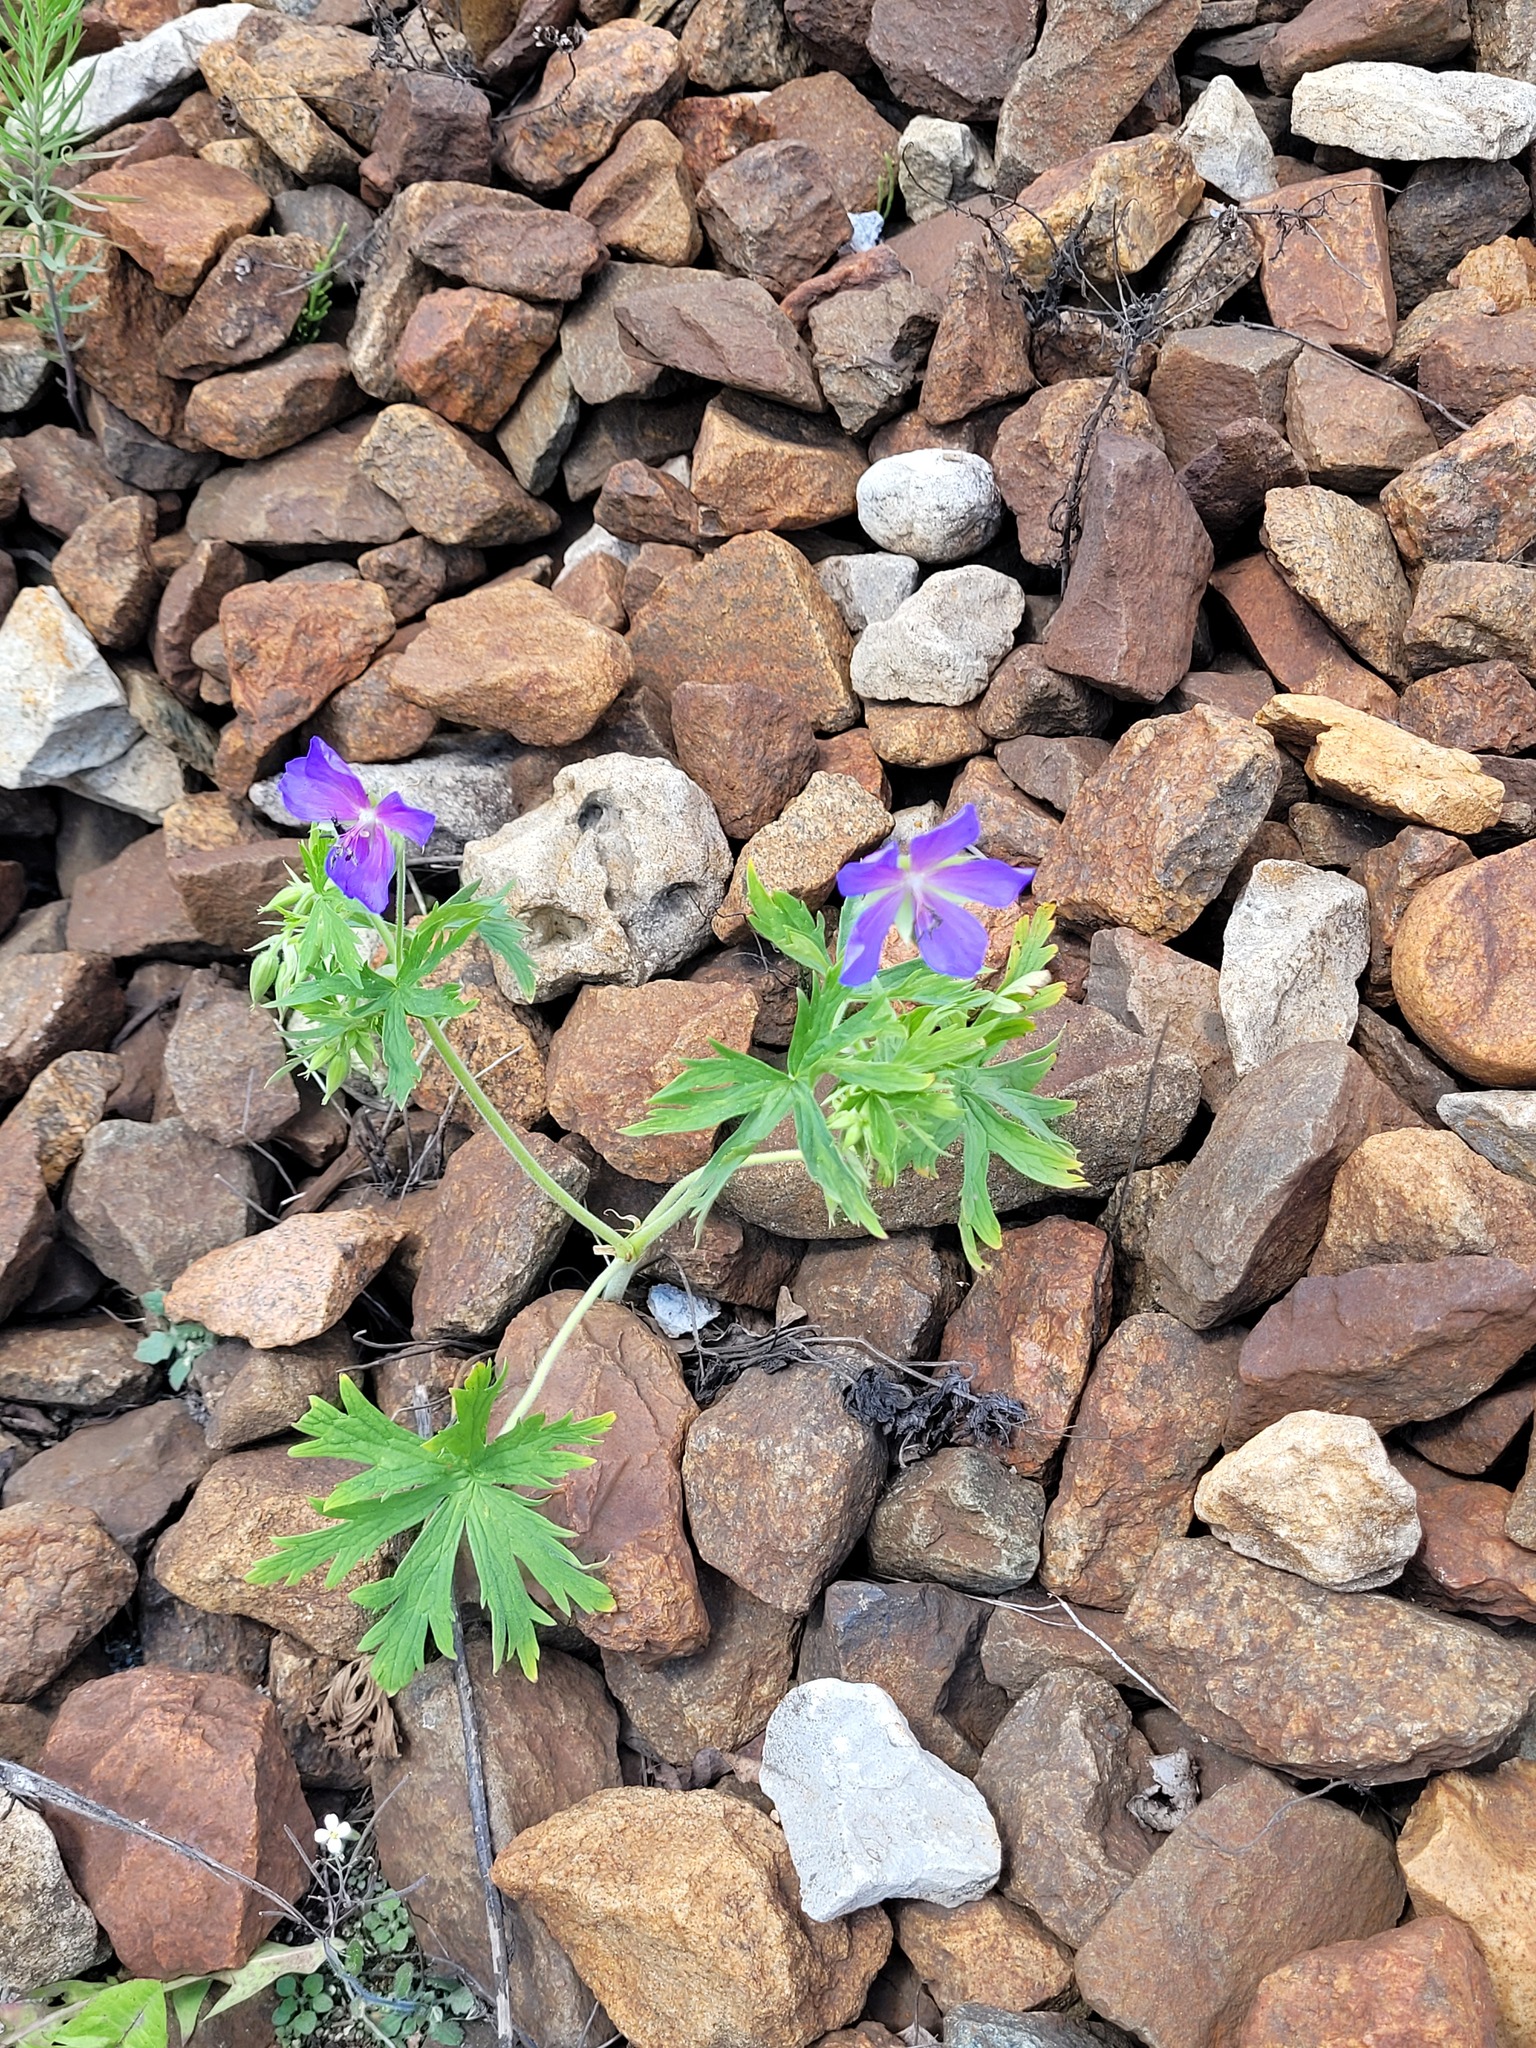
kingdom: Plantae
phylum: Tracheophyta
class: Magnoliopsida
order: Geraniales
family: Geraniaceae
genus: Geranium
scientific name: Geranium pratense
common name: Meadow crane's-bill
